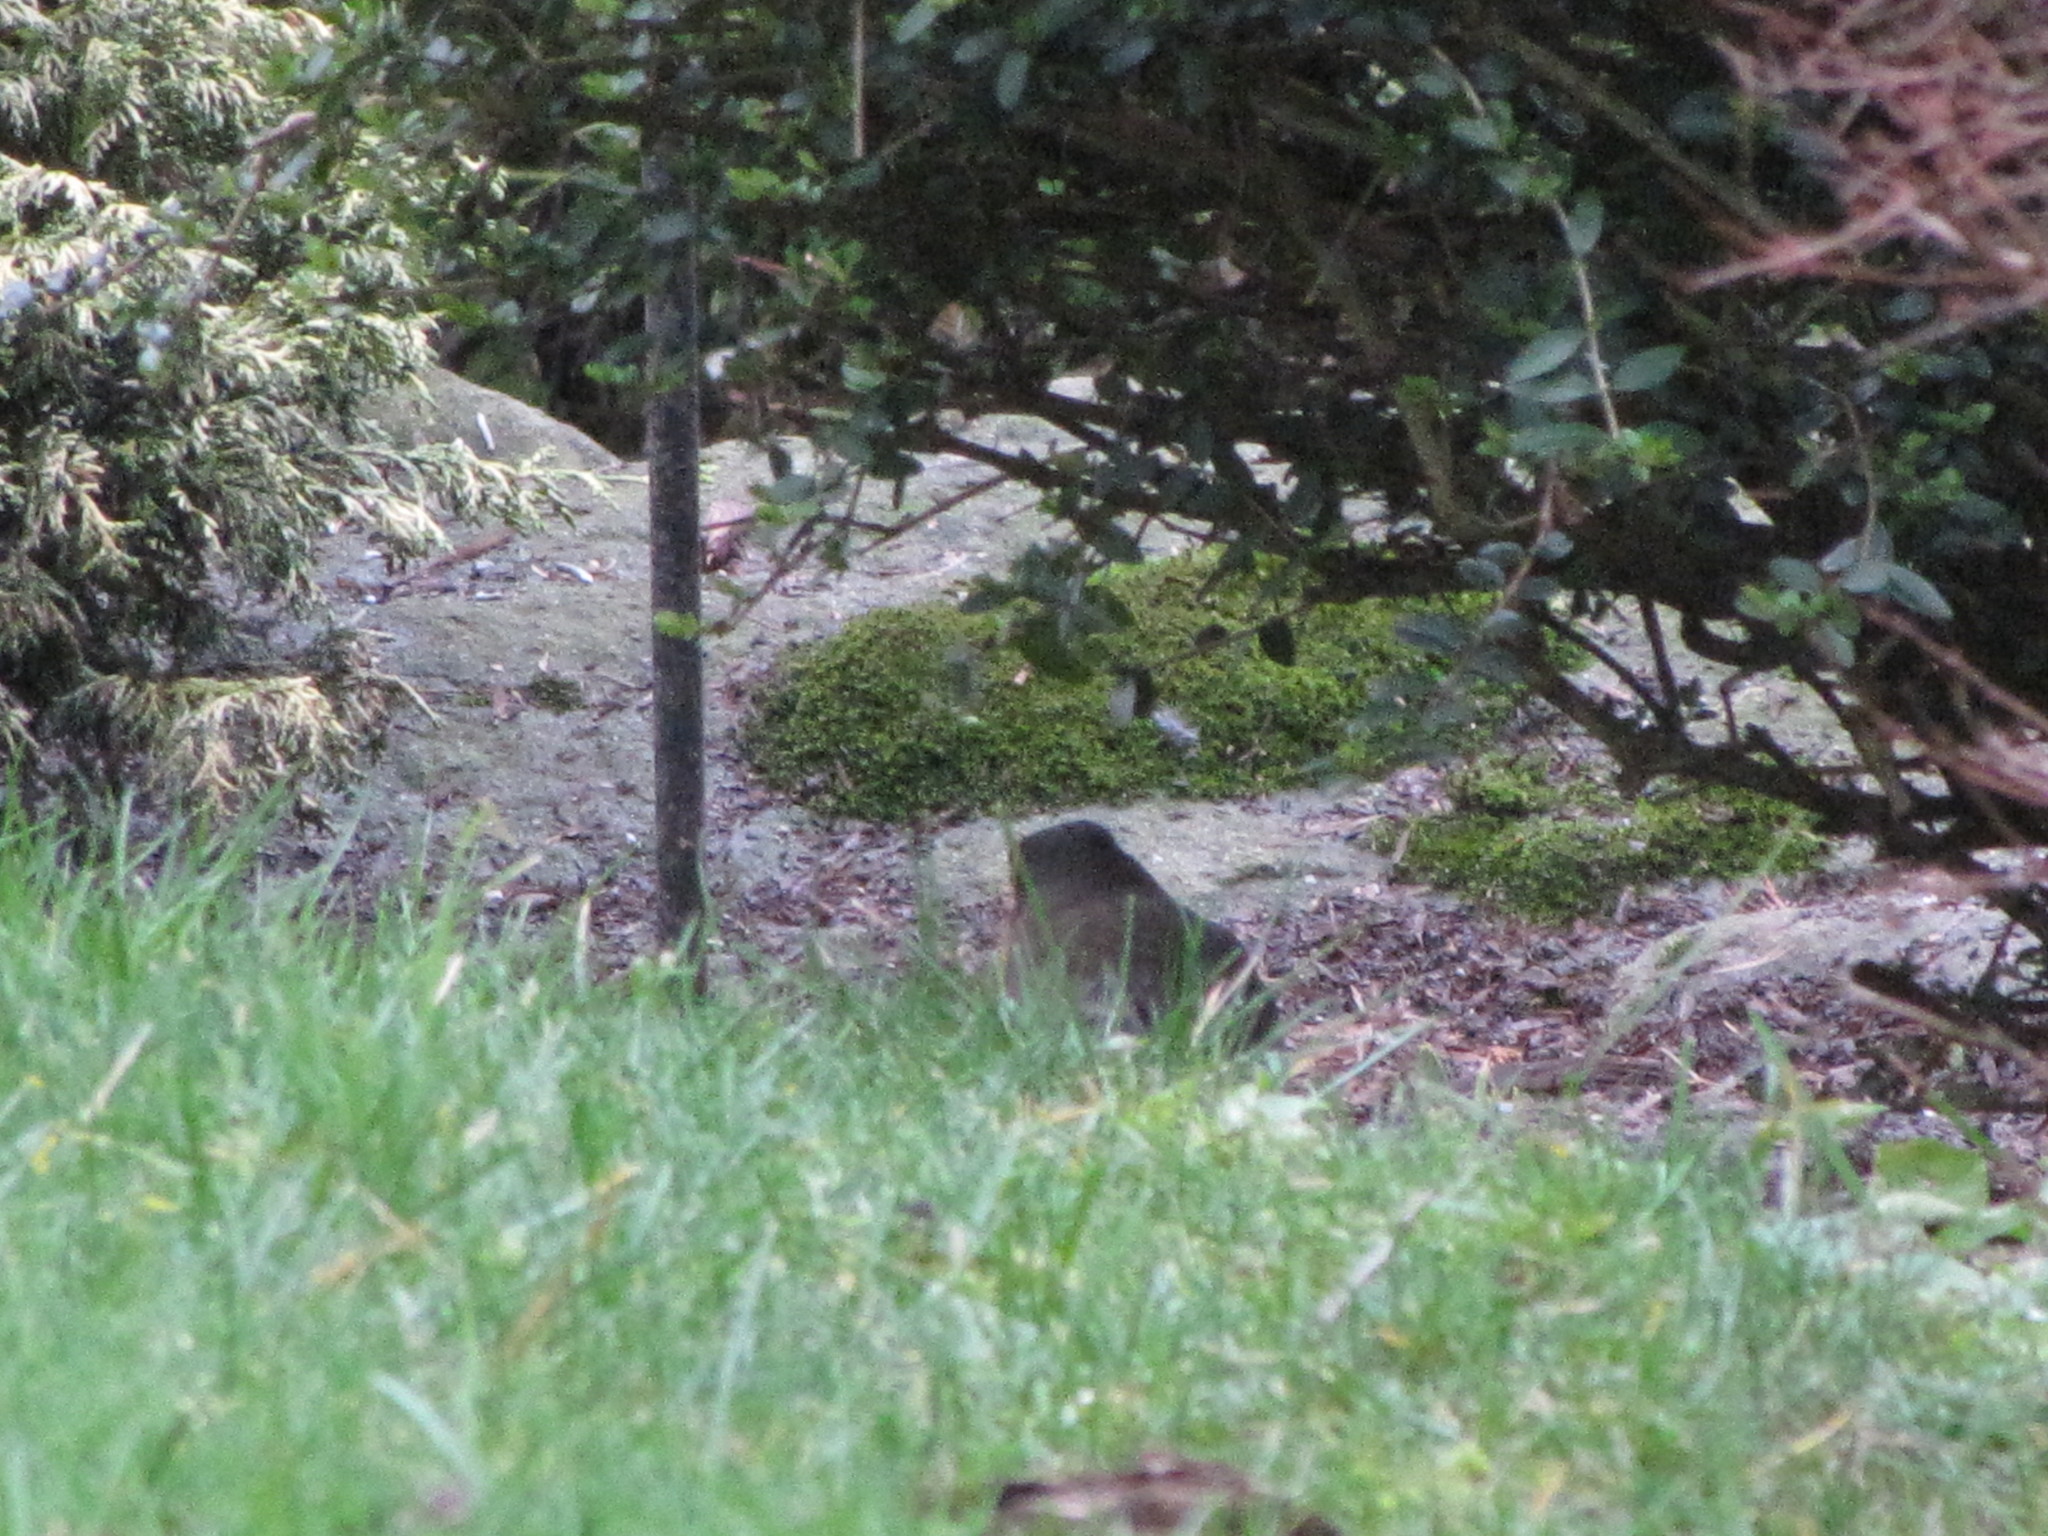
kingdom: Animalia
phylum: Chordata
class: Aves
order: Passeriformes
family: Passerellidae
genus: Junco
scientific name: Junco hyemalis
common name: Dark-eyed junco
